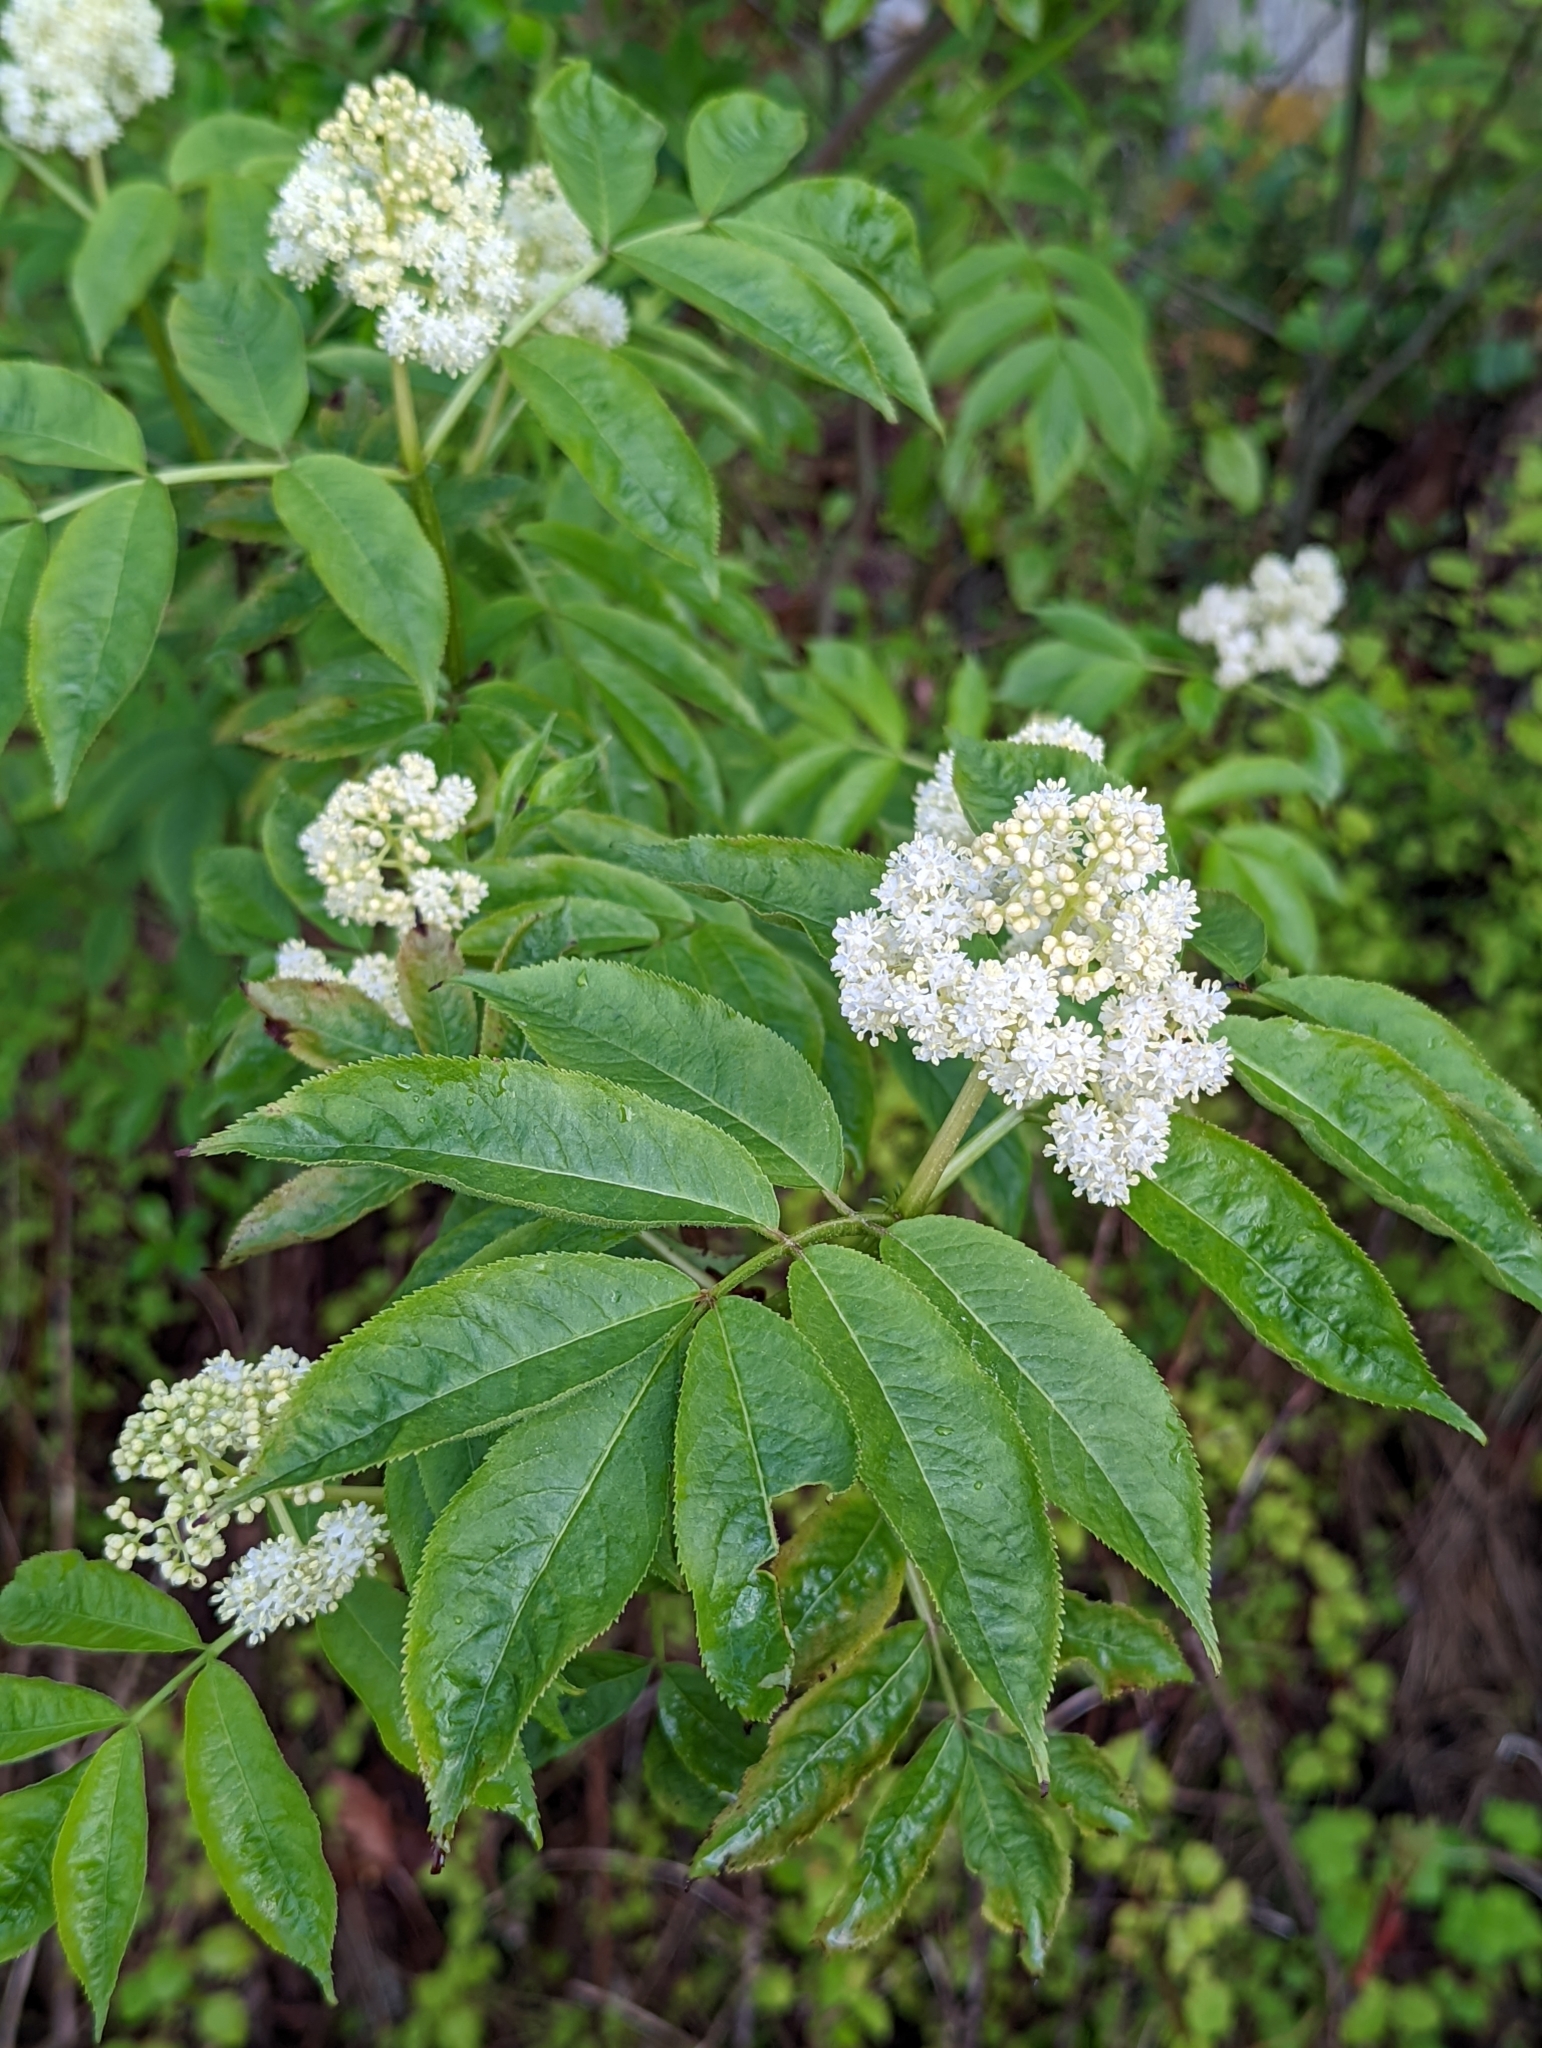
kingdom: Plantae
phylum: Tracheophyta
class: Magnoliopsida
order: Dipsacales
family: Viburnaceae
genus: Sambucus
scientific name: Sambucus racemosa
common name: Red-berried elder
